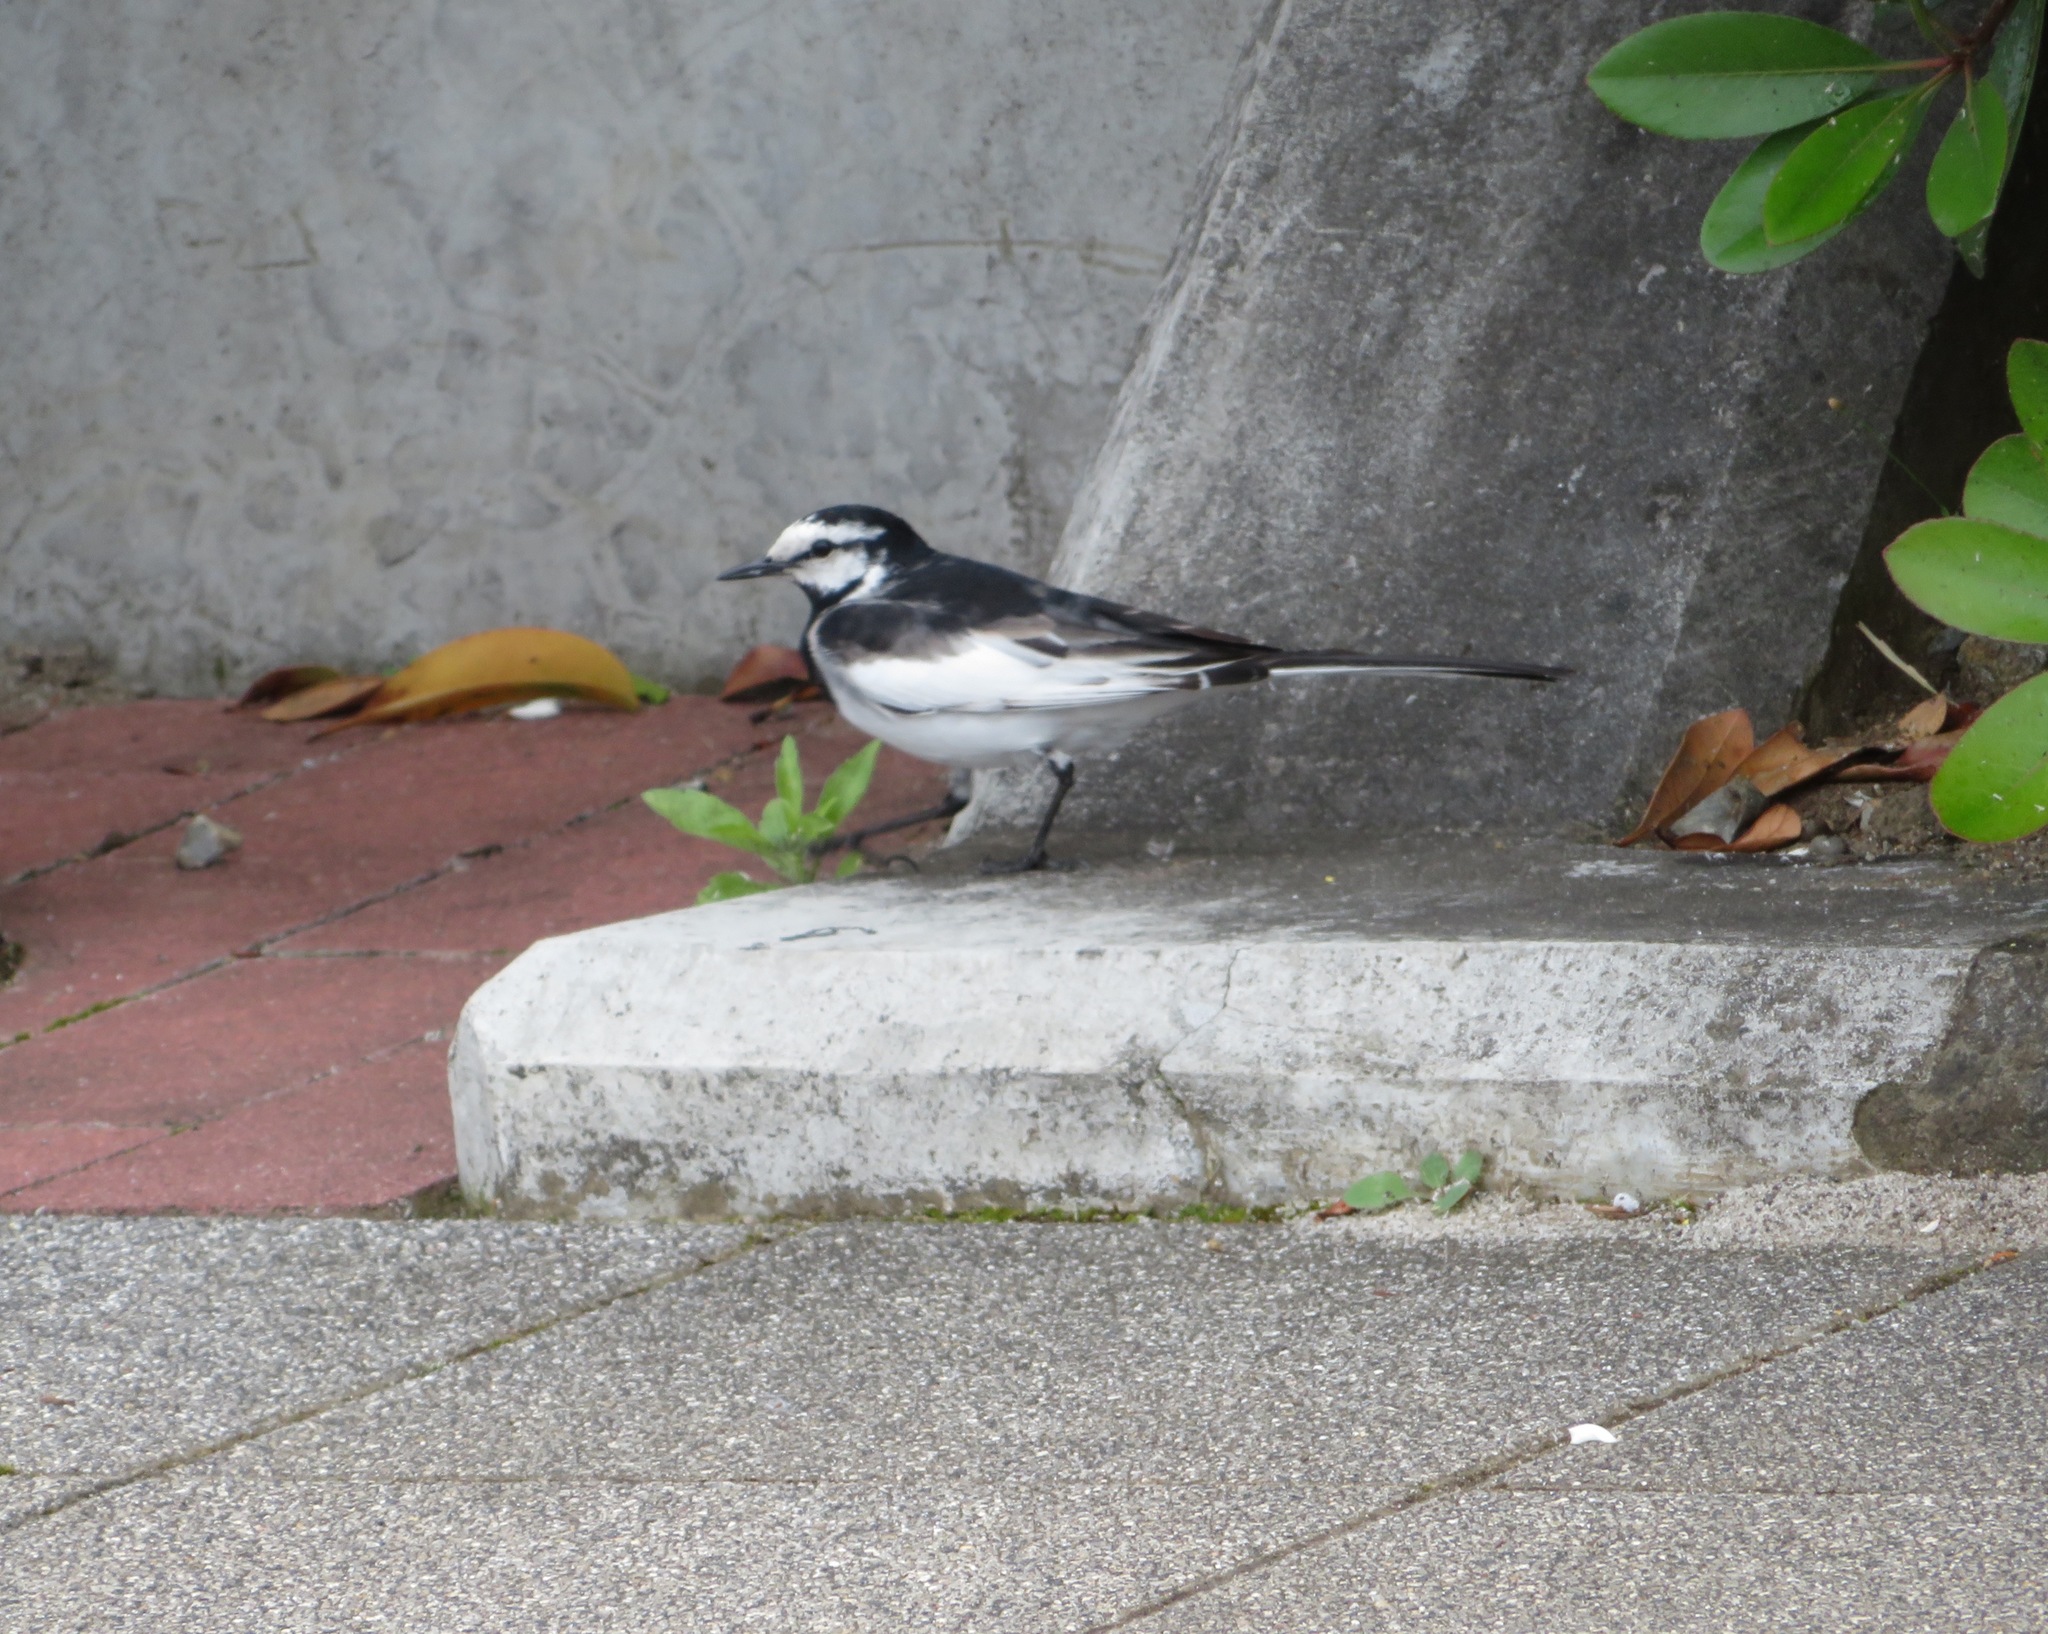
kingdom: Animalia
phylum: Chordata
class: Aves
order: Passeriformes
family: Motacillidae
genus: Motacilla
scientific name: Motacilla alba
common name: White wagtail
